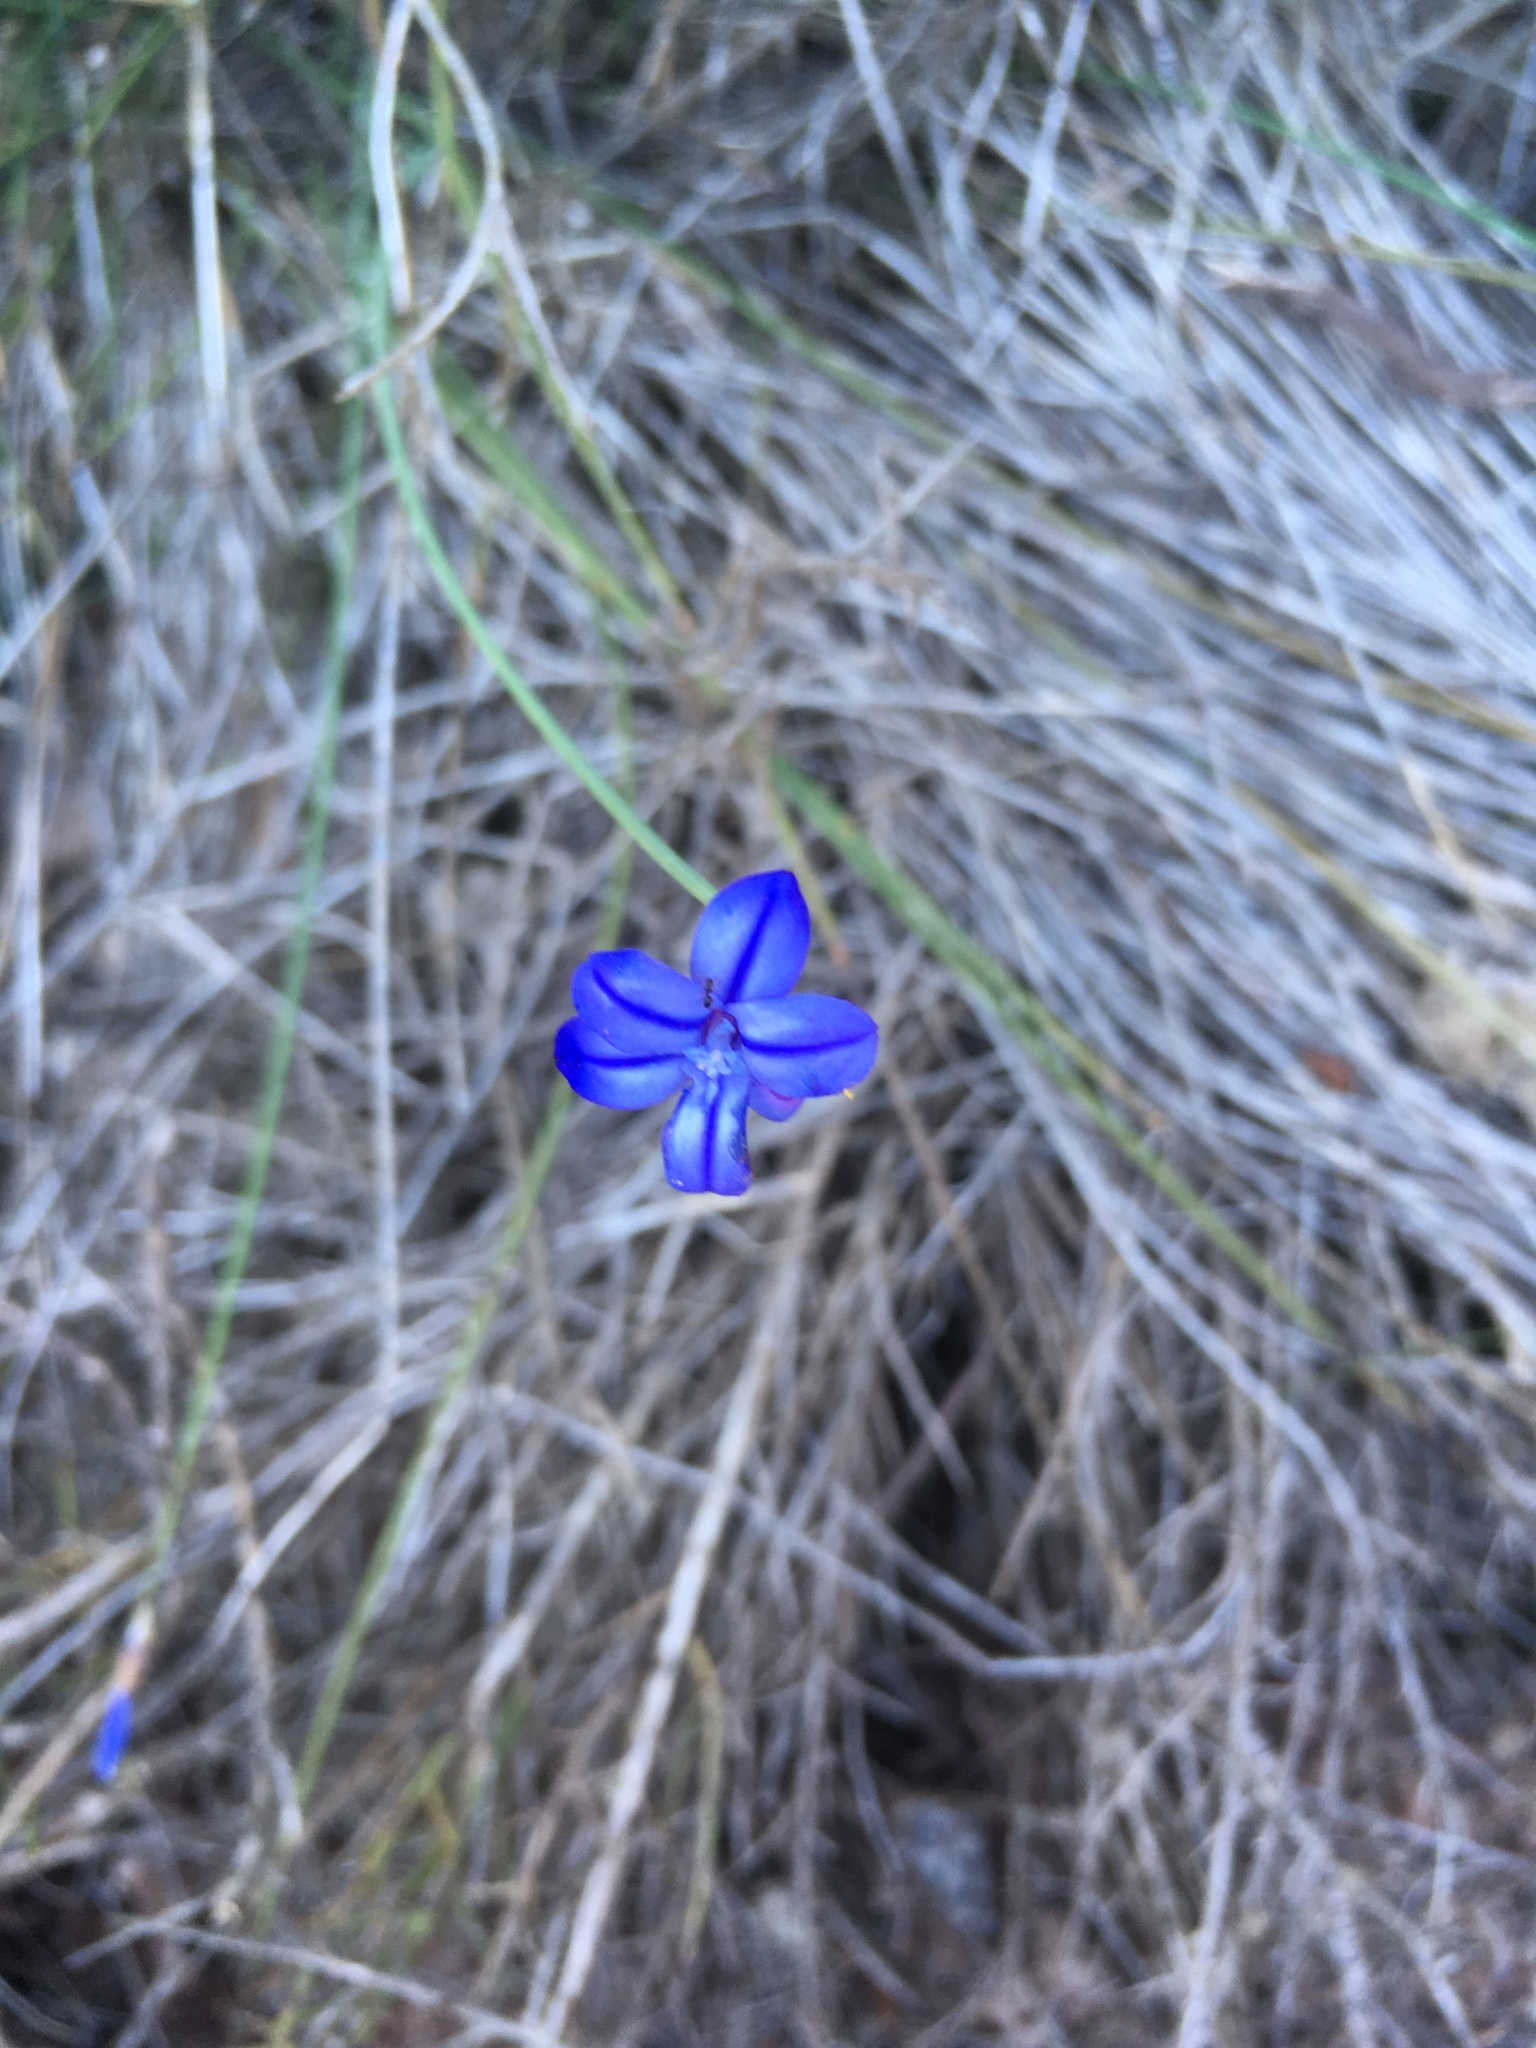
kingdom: Plantae
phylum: Tracheophyta
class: Liliopsida
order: Asparagales
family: Asparagaceae
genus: Aphyllanthes
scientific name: Aphyllanthes monspeliensis
